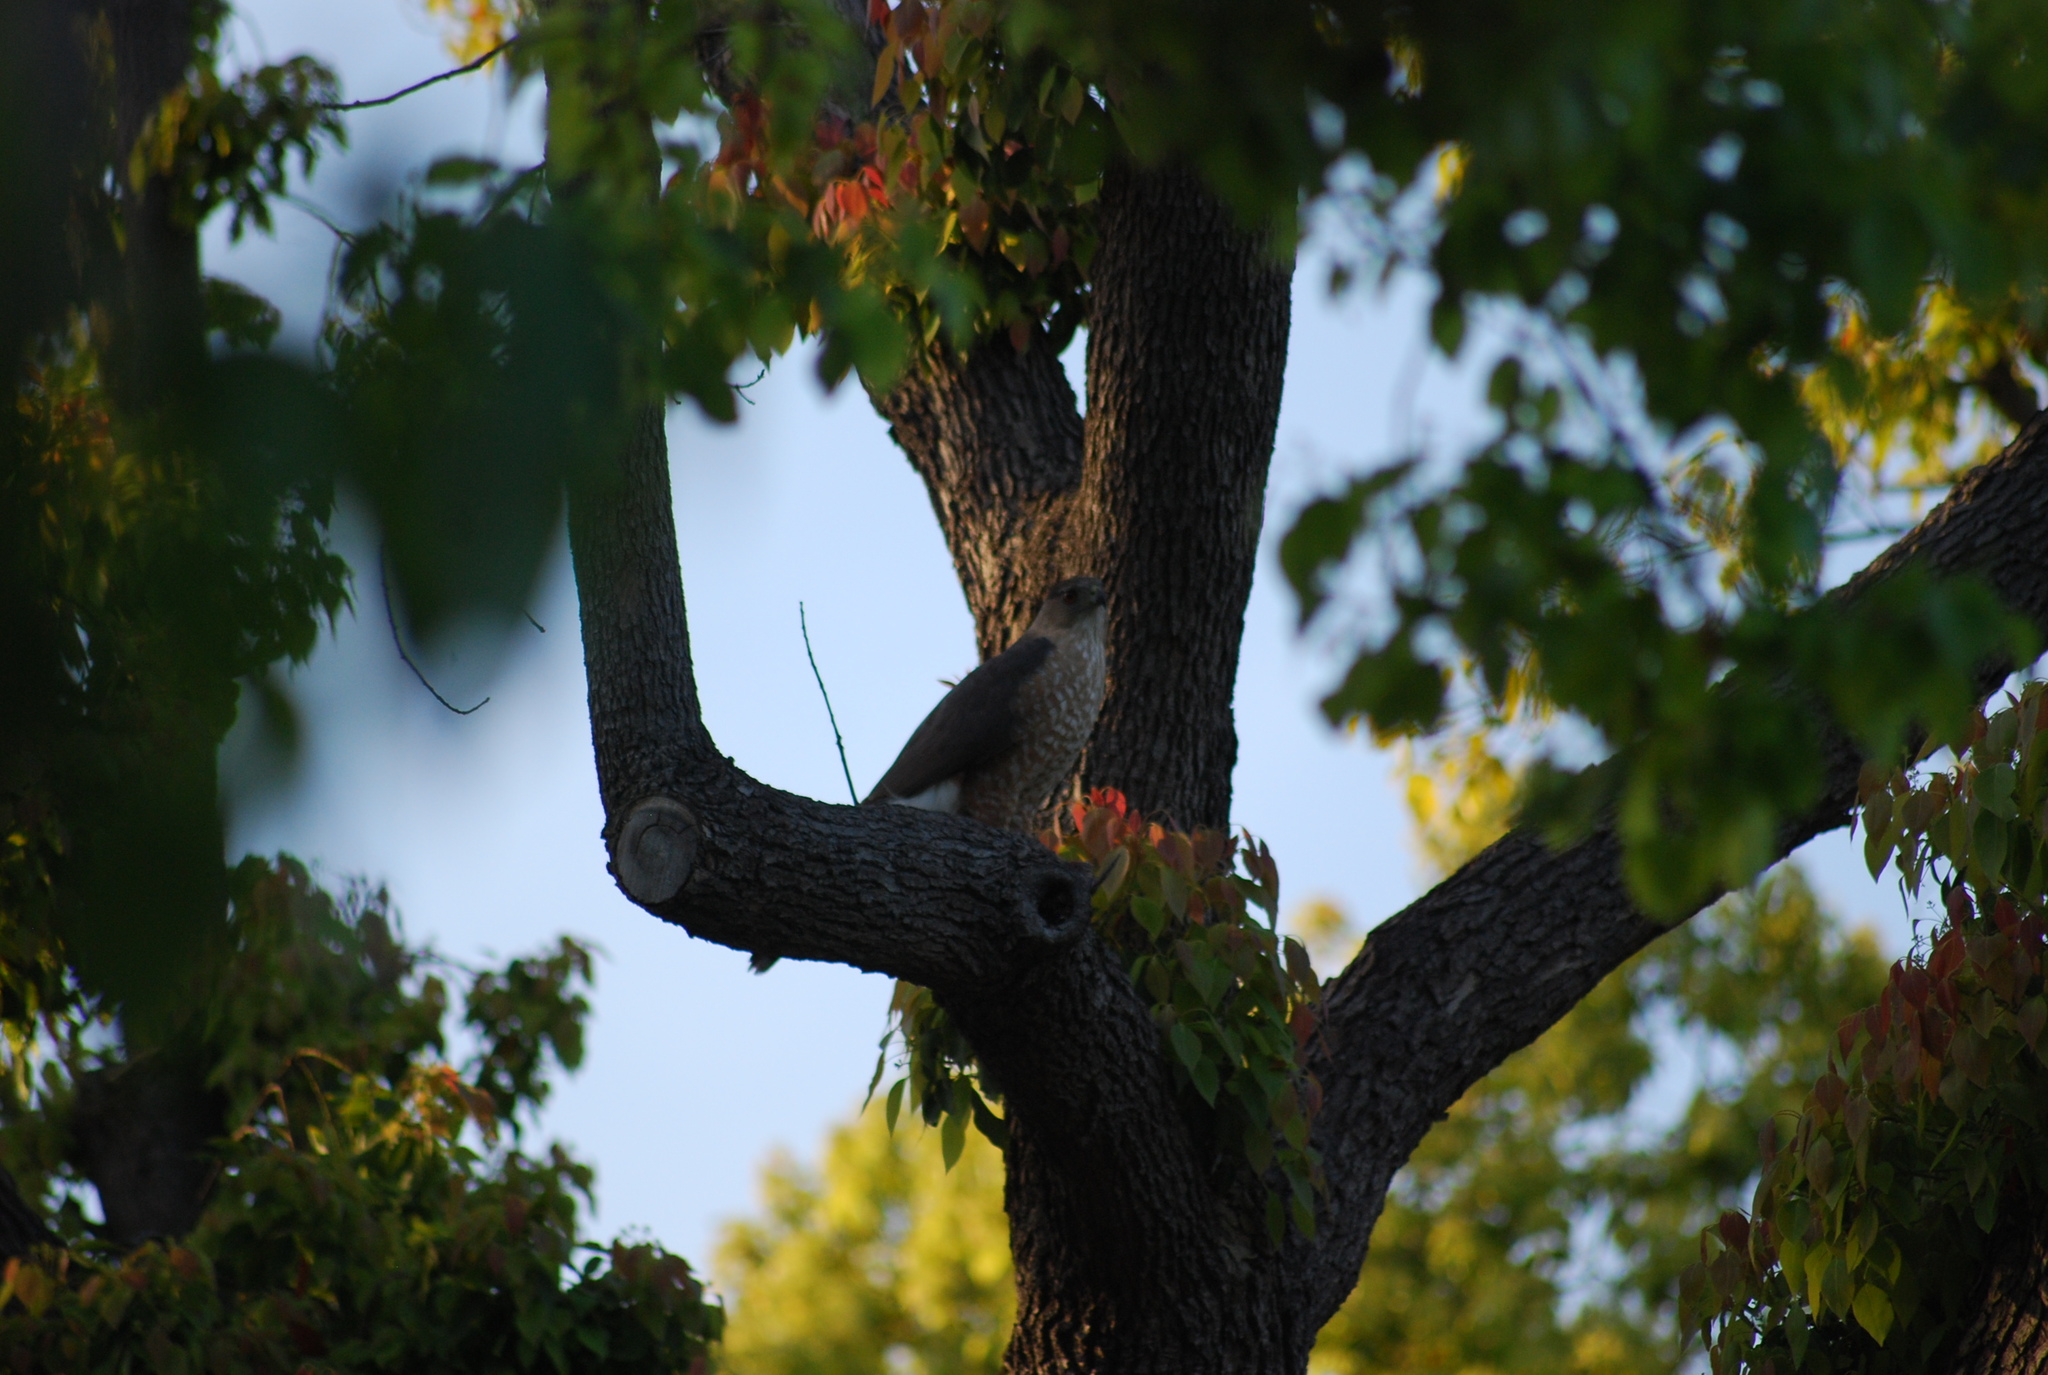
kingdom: Animalia
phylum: Chordata
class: Aves
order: Accipitriformes
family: Accipitridae
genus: Accipiter
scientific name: Accipiter cooperii
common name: Cooper's hawk
